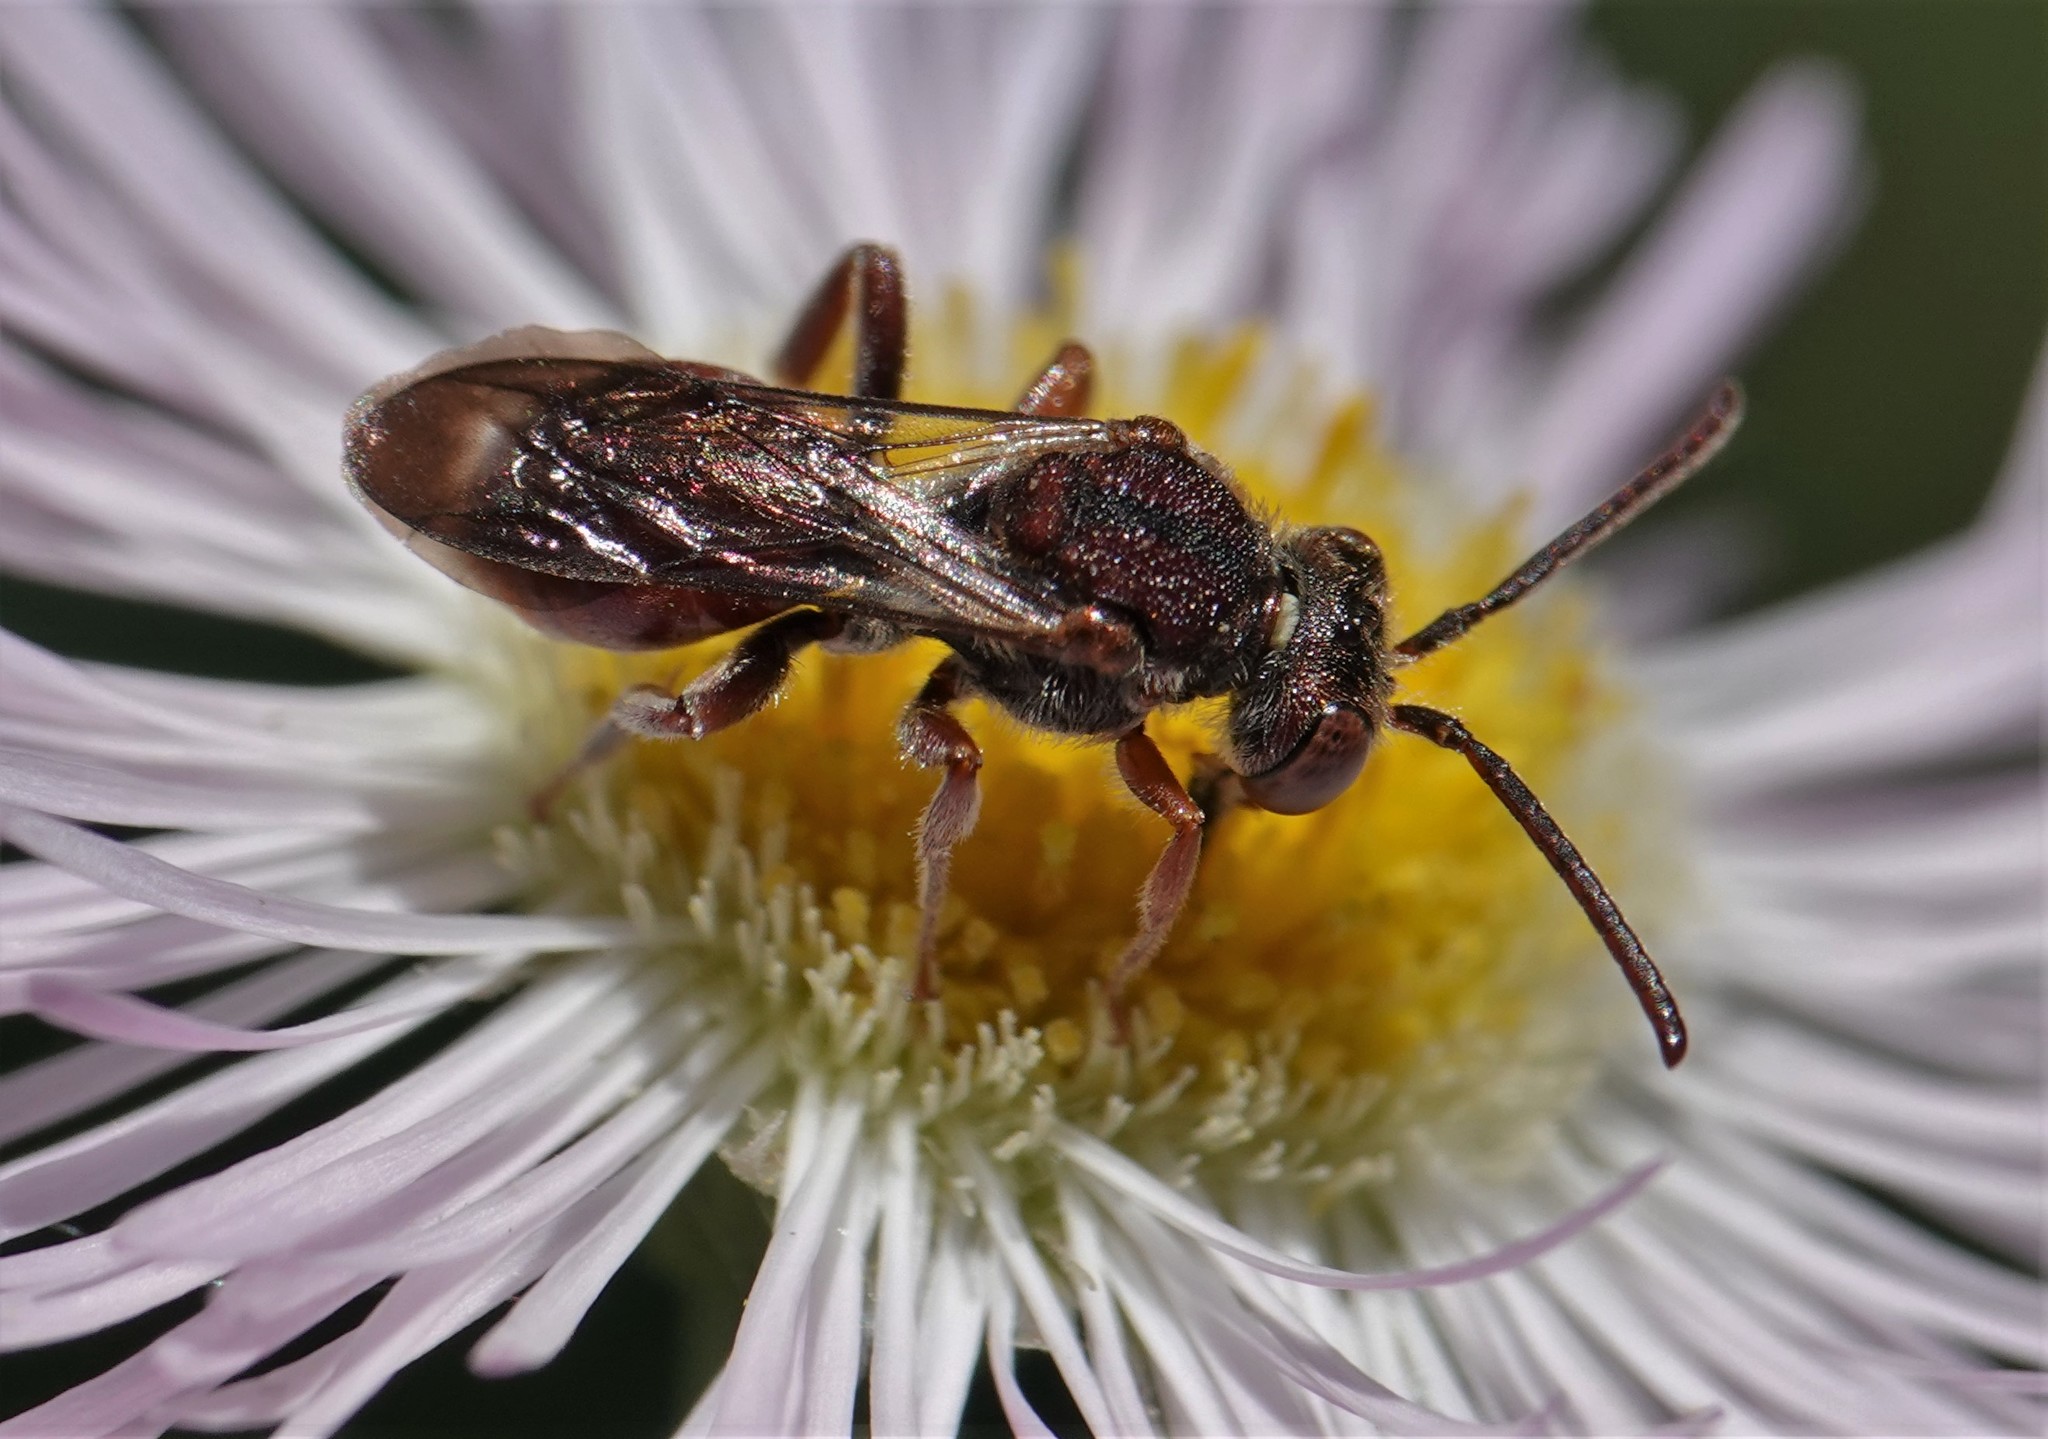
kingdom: Animalia
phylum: Arthropoda
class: Insecta
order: Hymenoptera
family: Apidae
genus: Nomada
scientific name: Nomada articulata
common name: Articulated nomad
